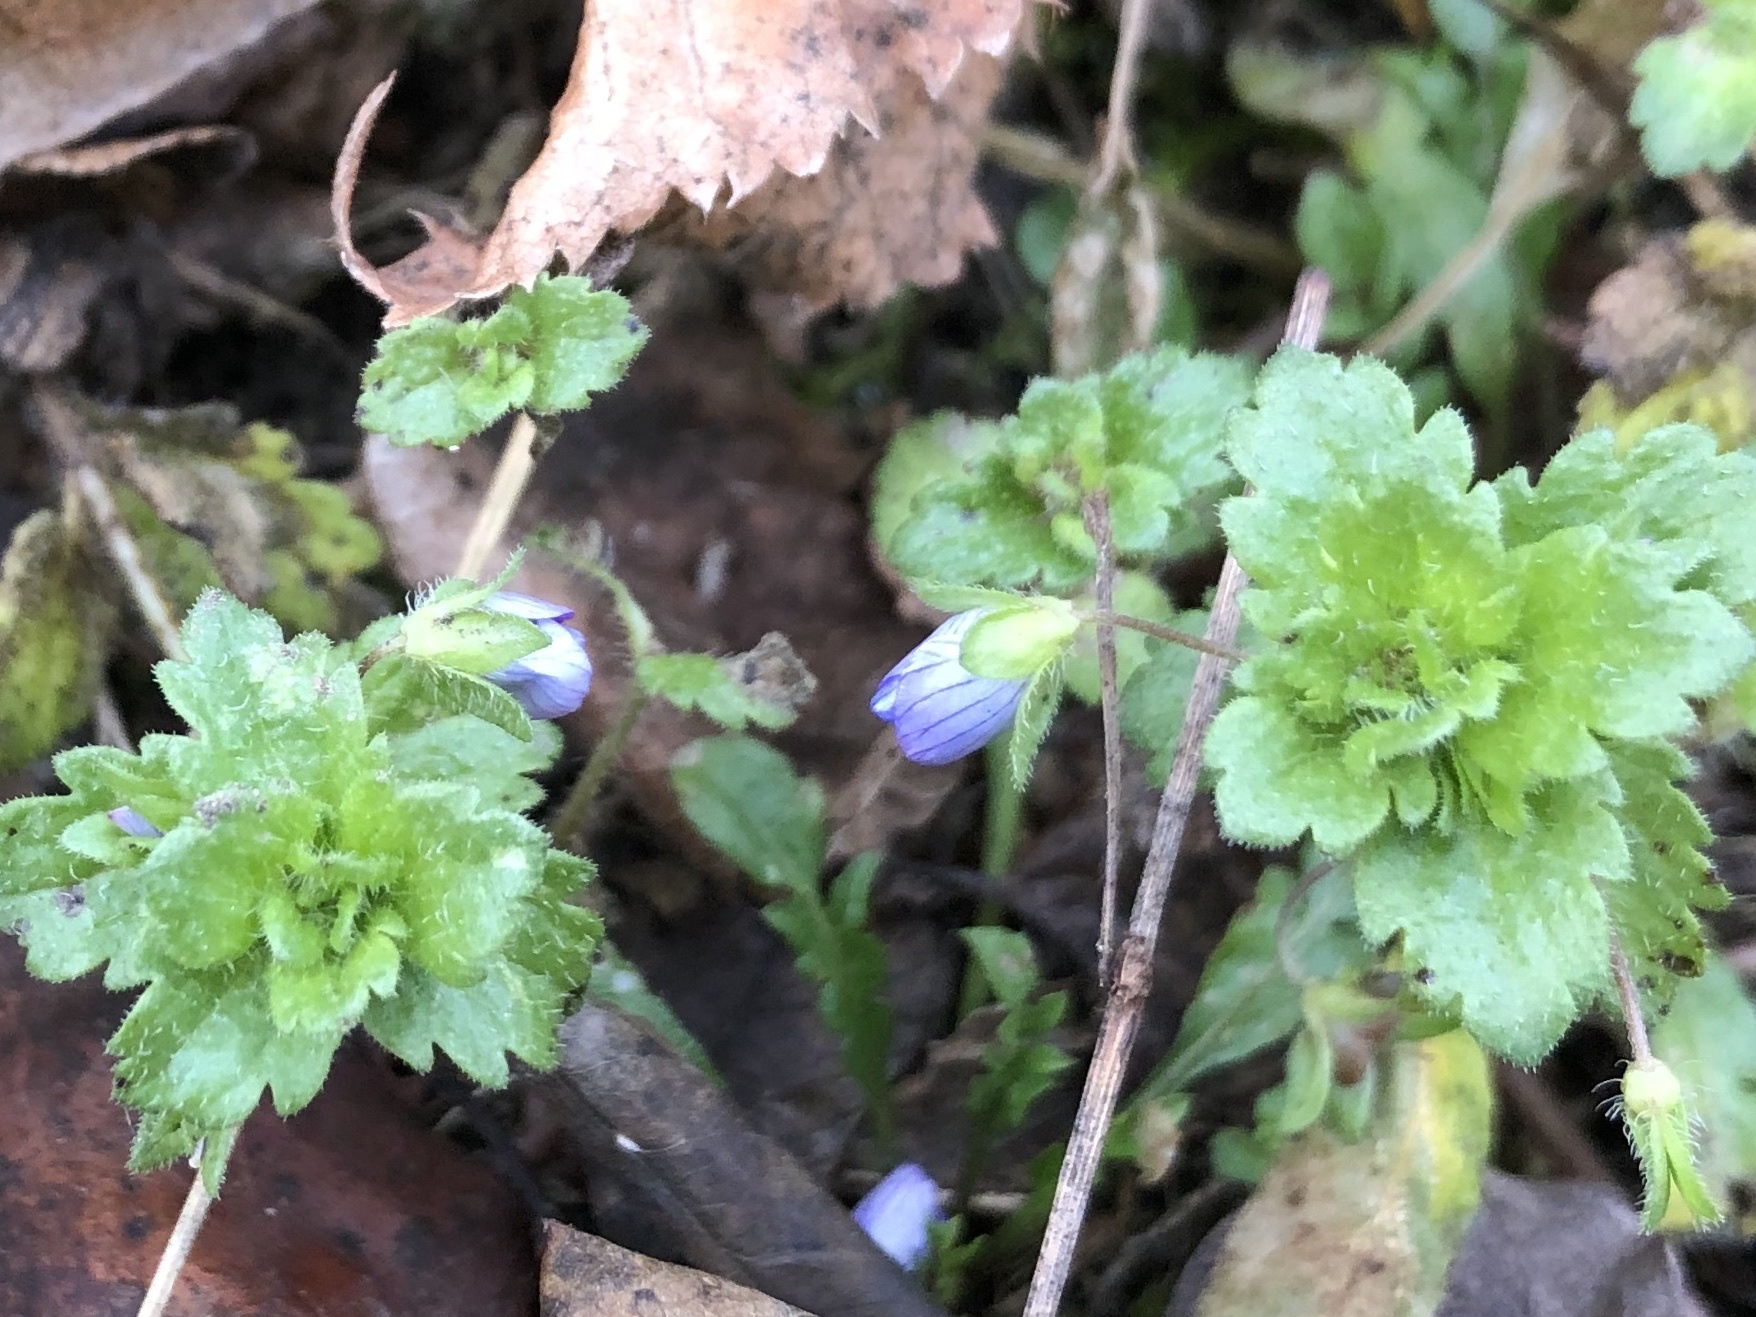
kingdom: Plantae
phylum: Tracheophyta
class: Magnoliopsida
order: Lamiales
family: Plantaginaceae
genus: Veronica
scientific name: Veronica persica
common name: Common field-speedwell
